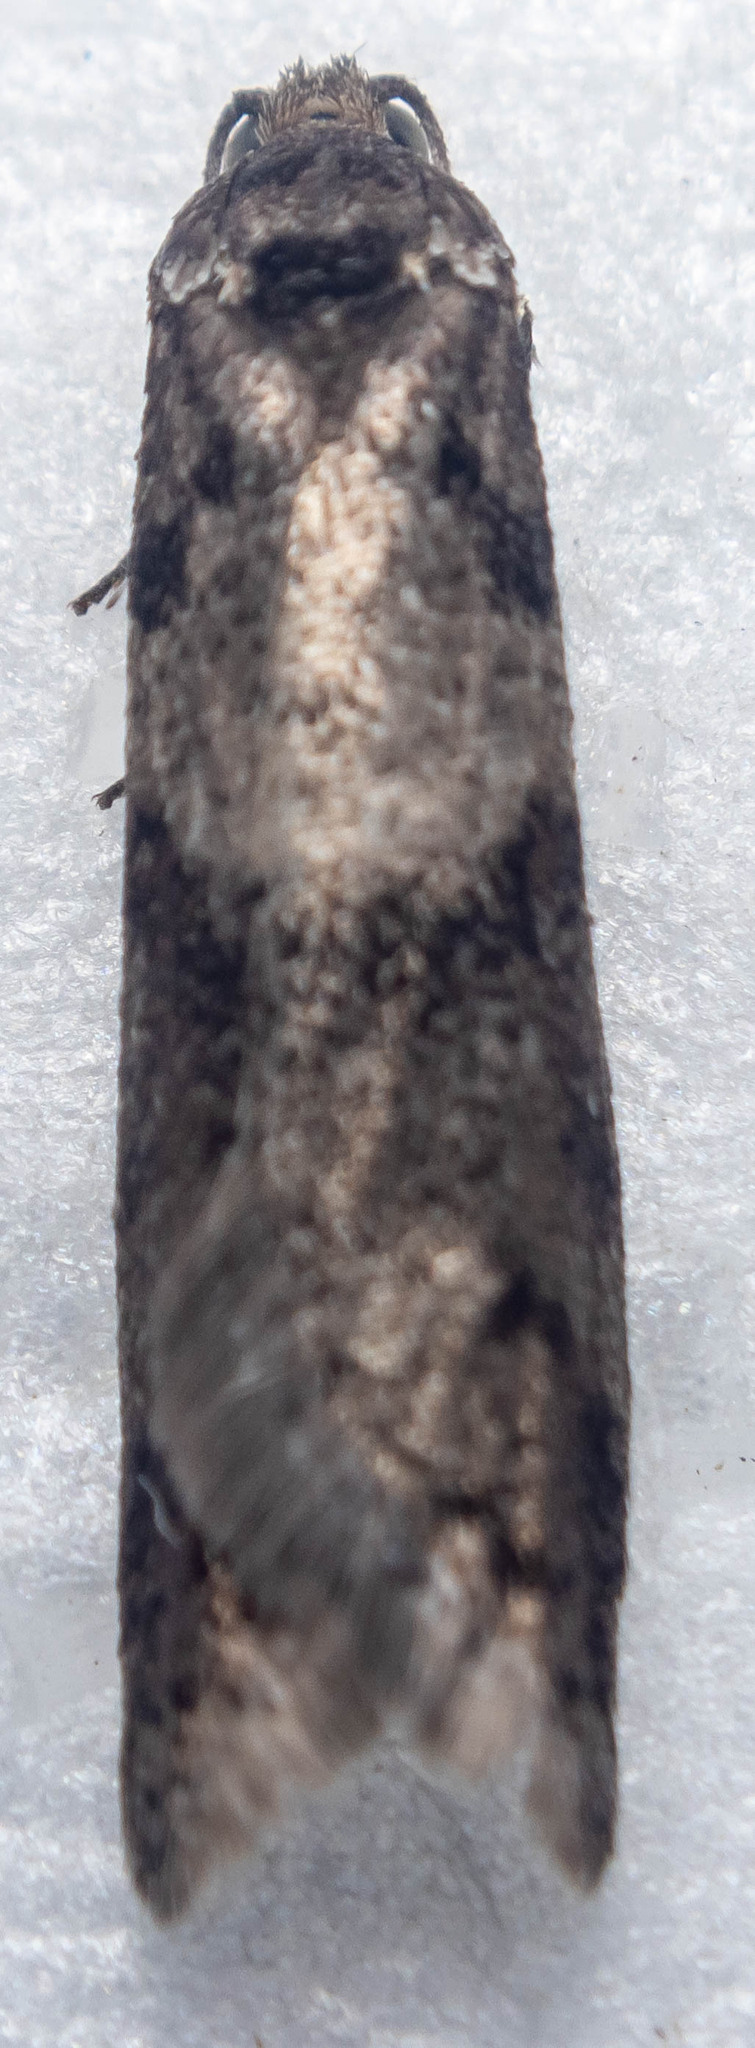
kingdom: Animalia
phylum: Arthropoda
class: Insecta
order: Lepidoptera
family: Tortricidae
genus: Tortricodes
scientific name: Tortricodes alternella
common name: Winter shade
